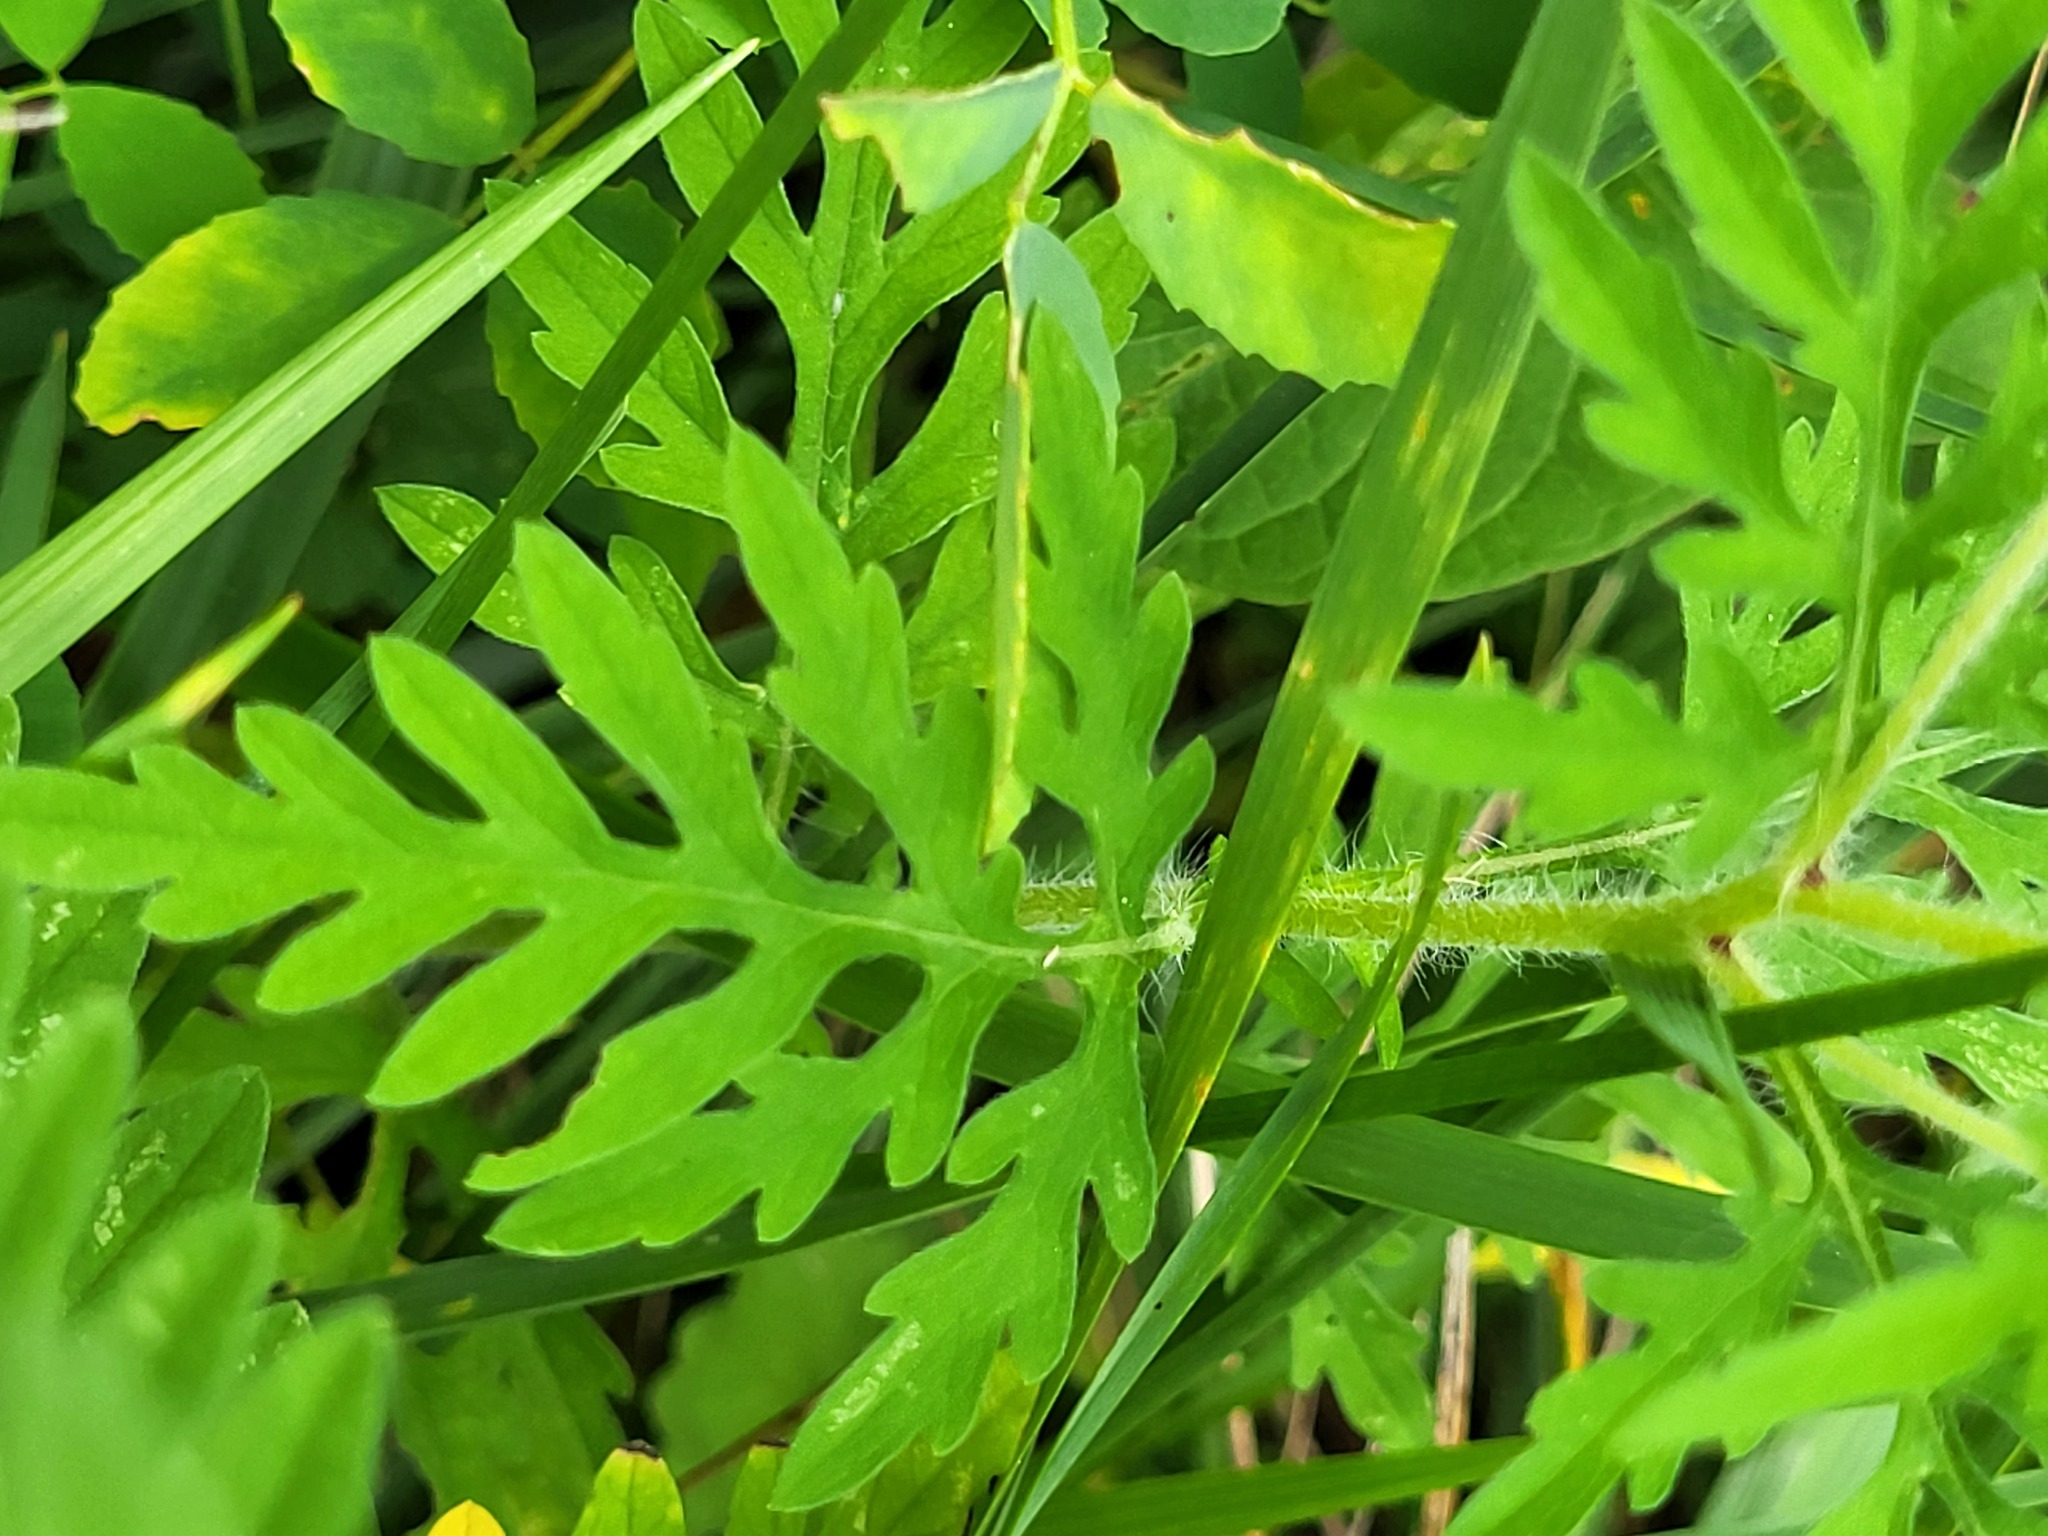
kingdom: Plantae
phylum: Tracheophyta
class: Magnoliopsida
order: Asterales
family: Asteraceae
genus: Ambrosia
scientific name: Ambrosia artemisiifolia
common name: Annual ragweed
